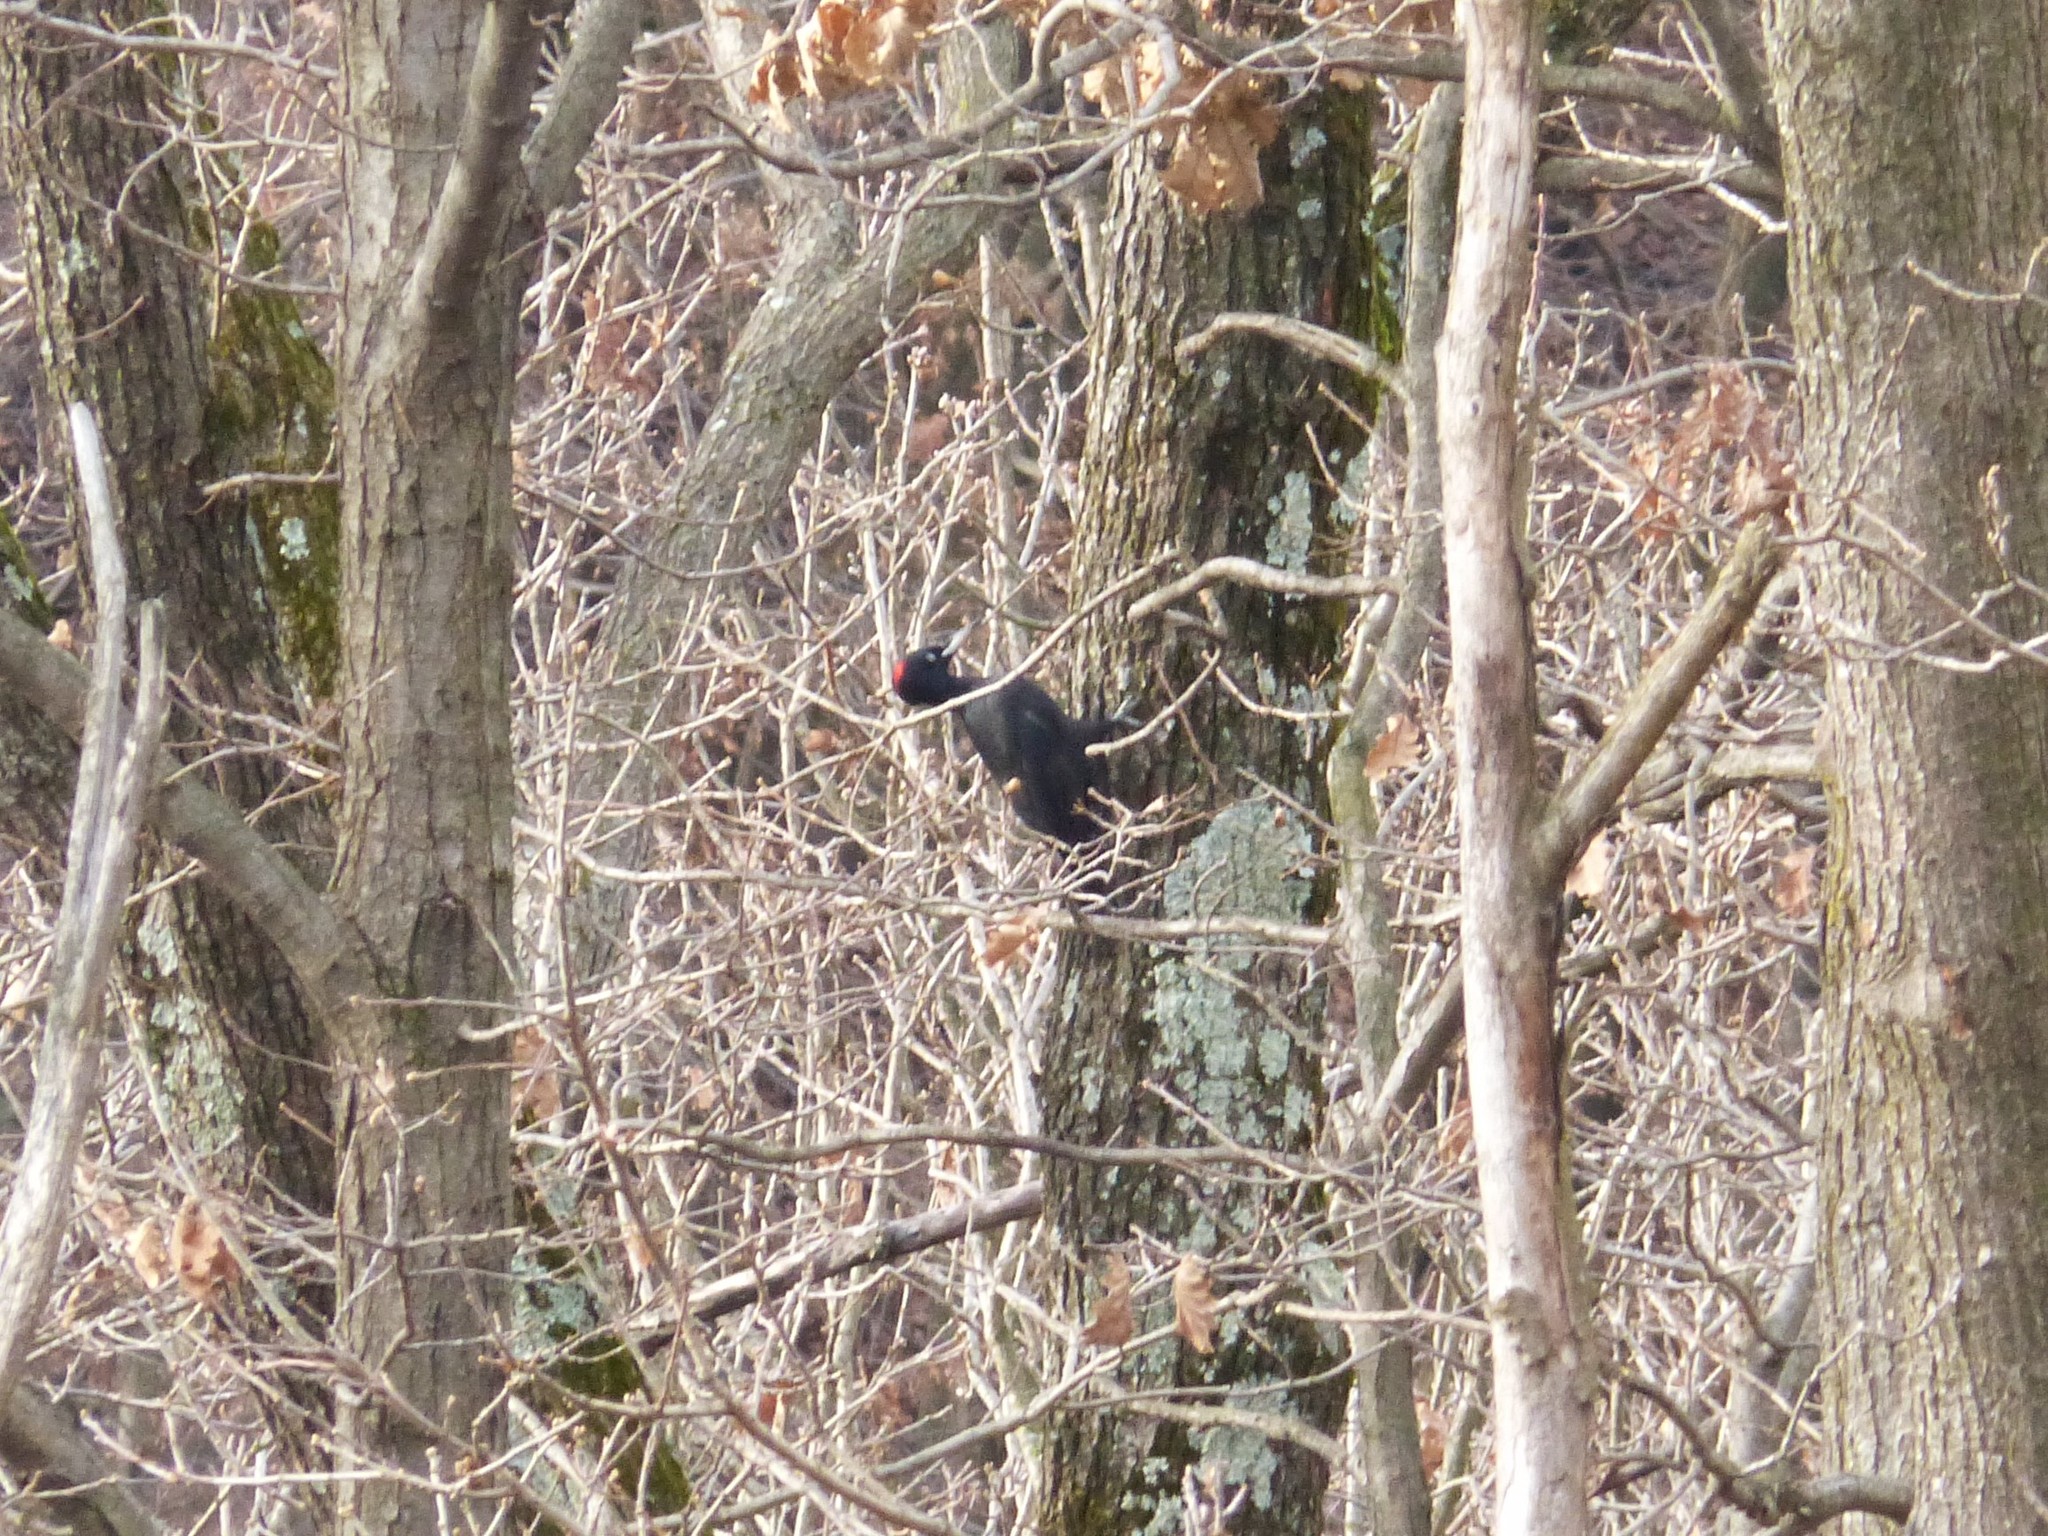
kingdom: Animalia
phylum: Chordata
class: Aves
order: Piciformes
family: Picidae
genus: Dryocopus
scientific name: Dryocopus martius
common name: Black woodpecker
